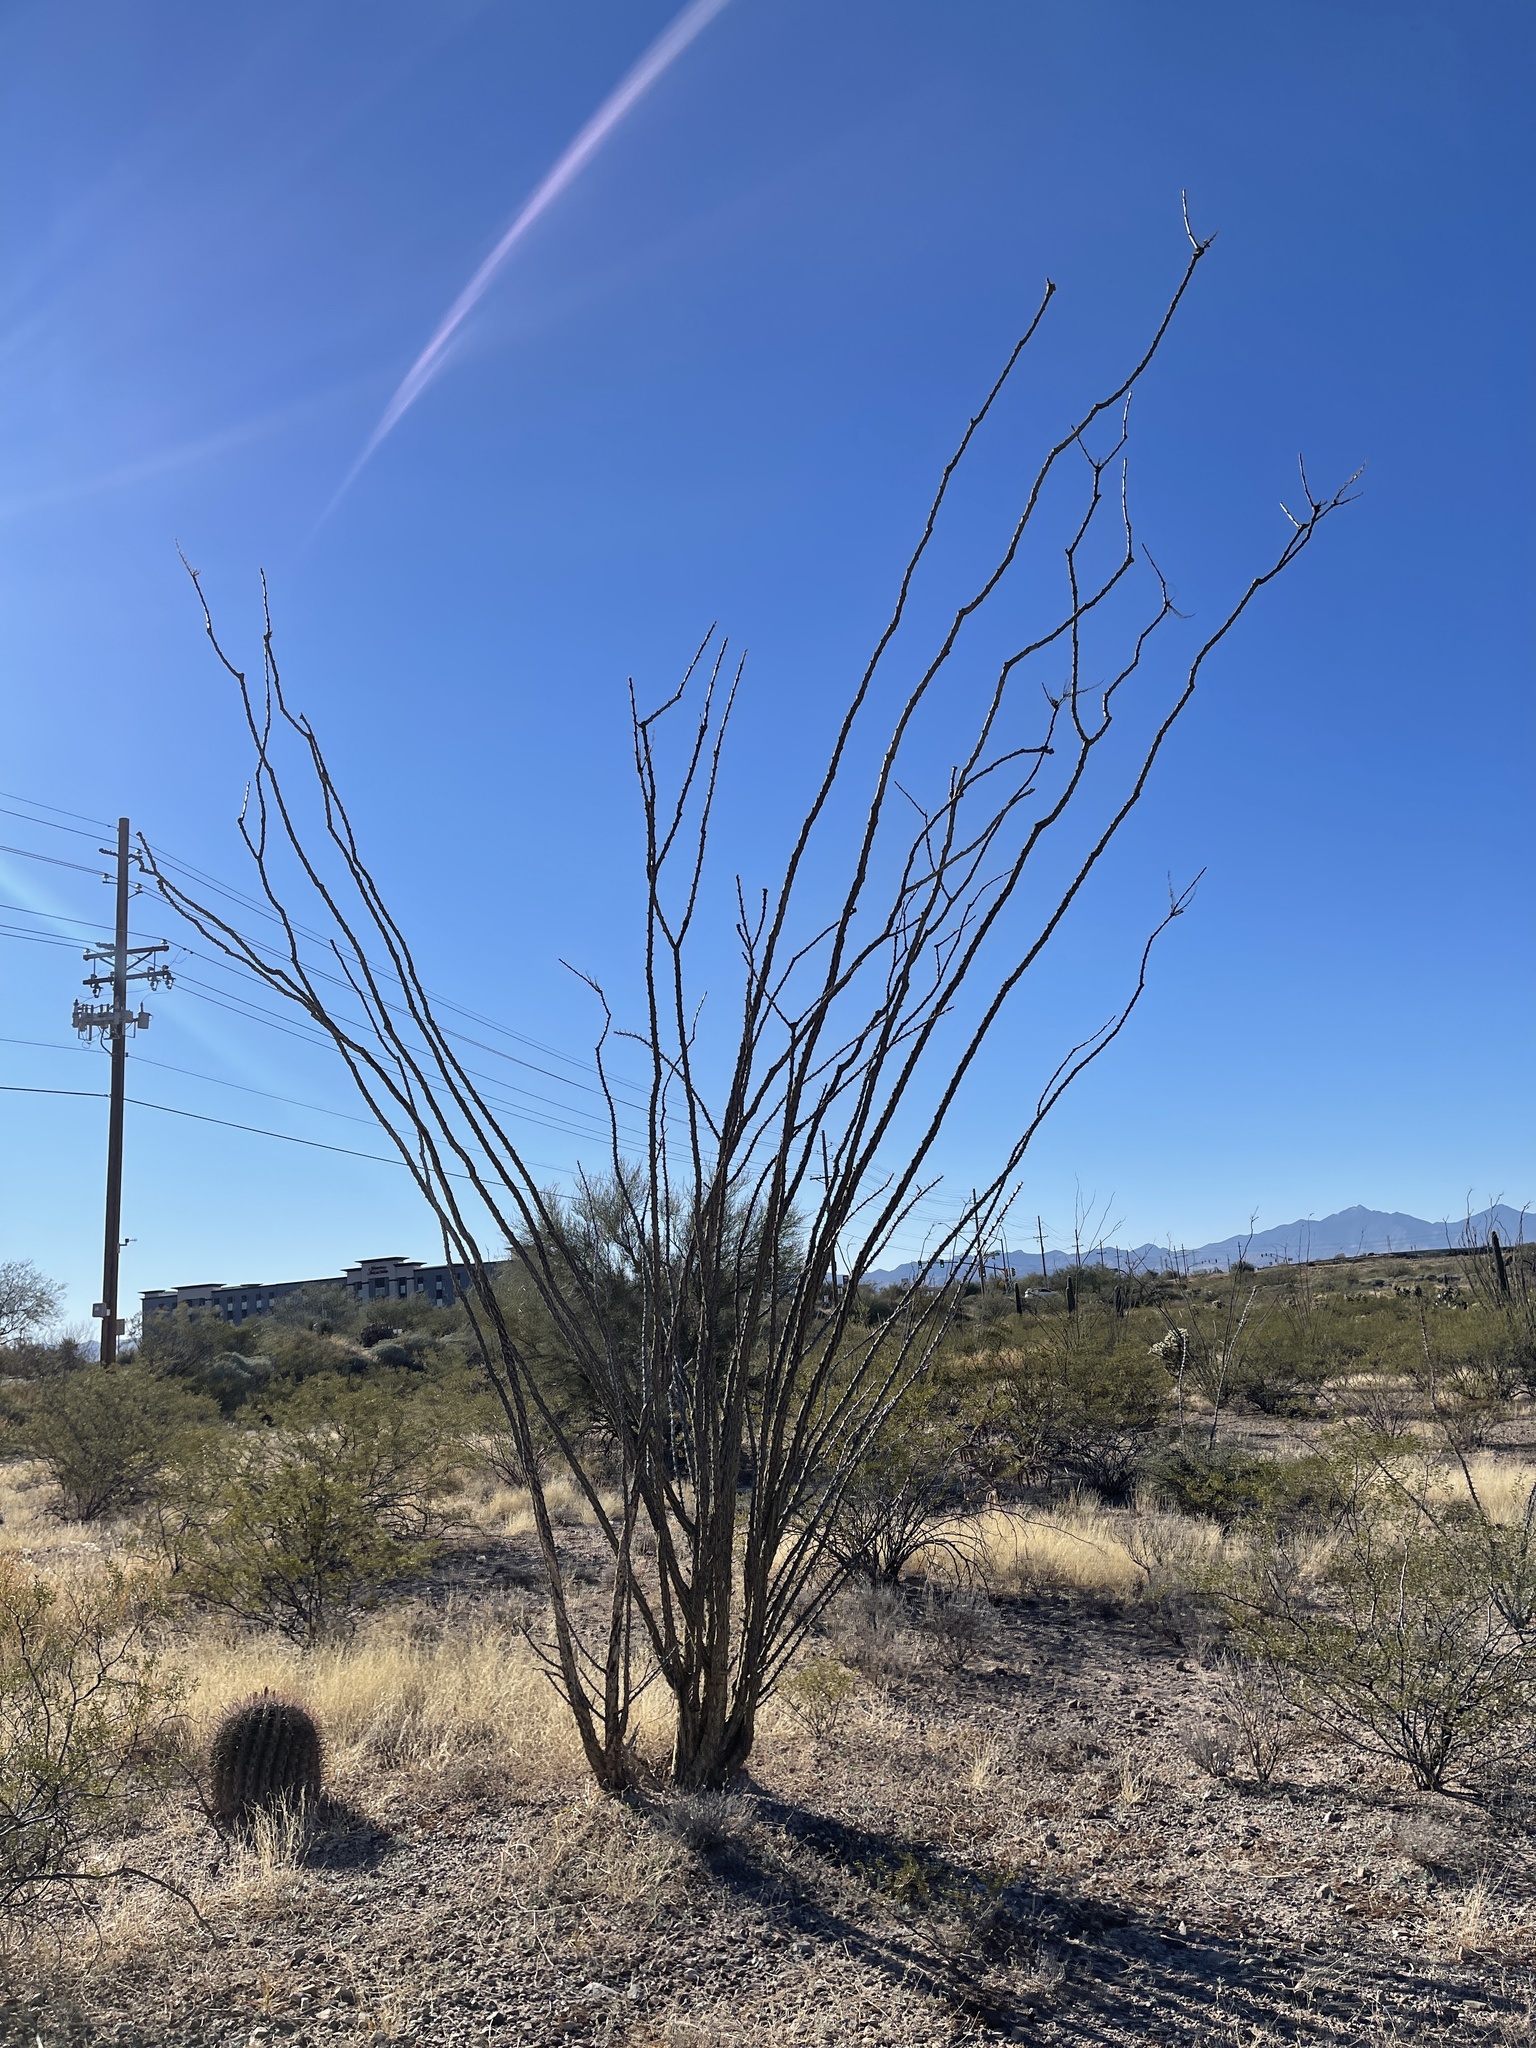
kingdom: Plantae
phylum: Tracheophyta
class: Magnoliopsida
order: Ericales
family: Fouquieriaceae
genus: Fouquieria
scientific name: Fouquieria splendens
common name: Vine-cactus
